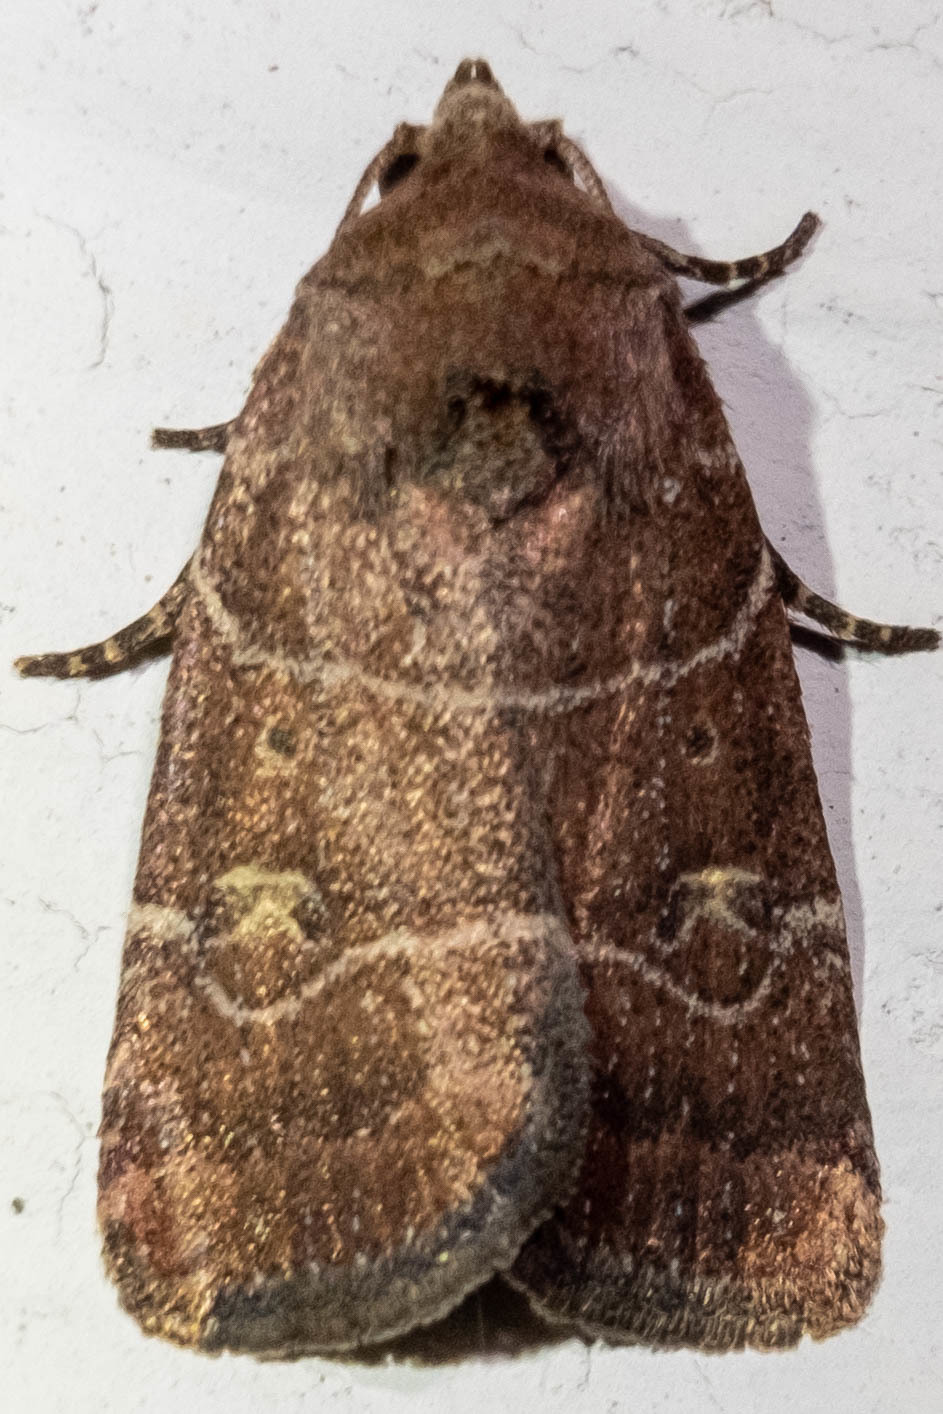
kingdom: Animalia
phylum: Arthropoda
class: Insecta
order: Lepidoptera
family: Noctuidae
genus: Elaphria
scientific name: Elaphria grata
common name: Grateful midget moth
